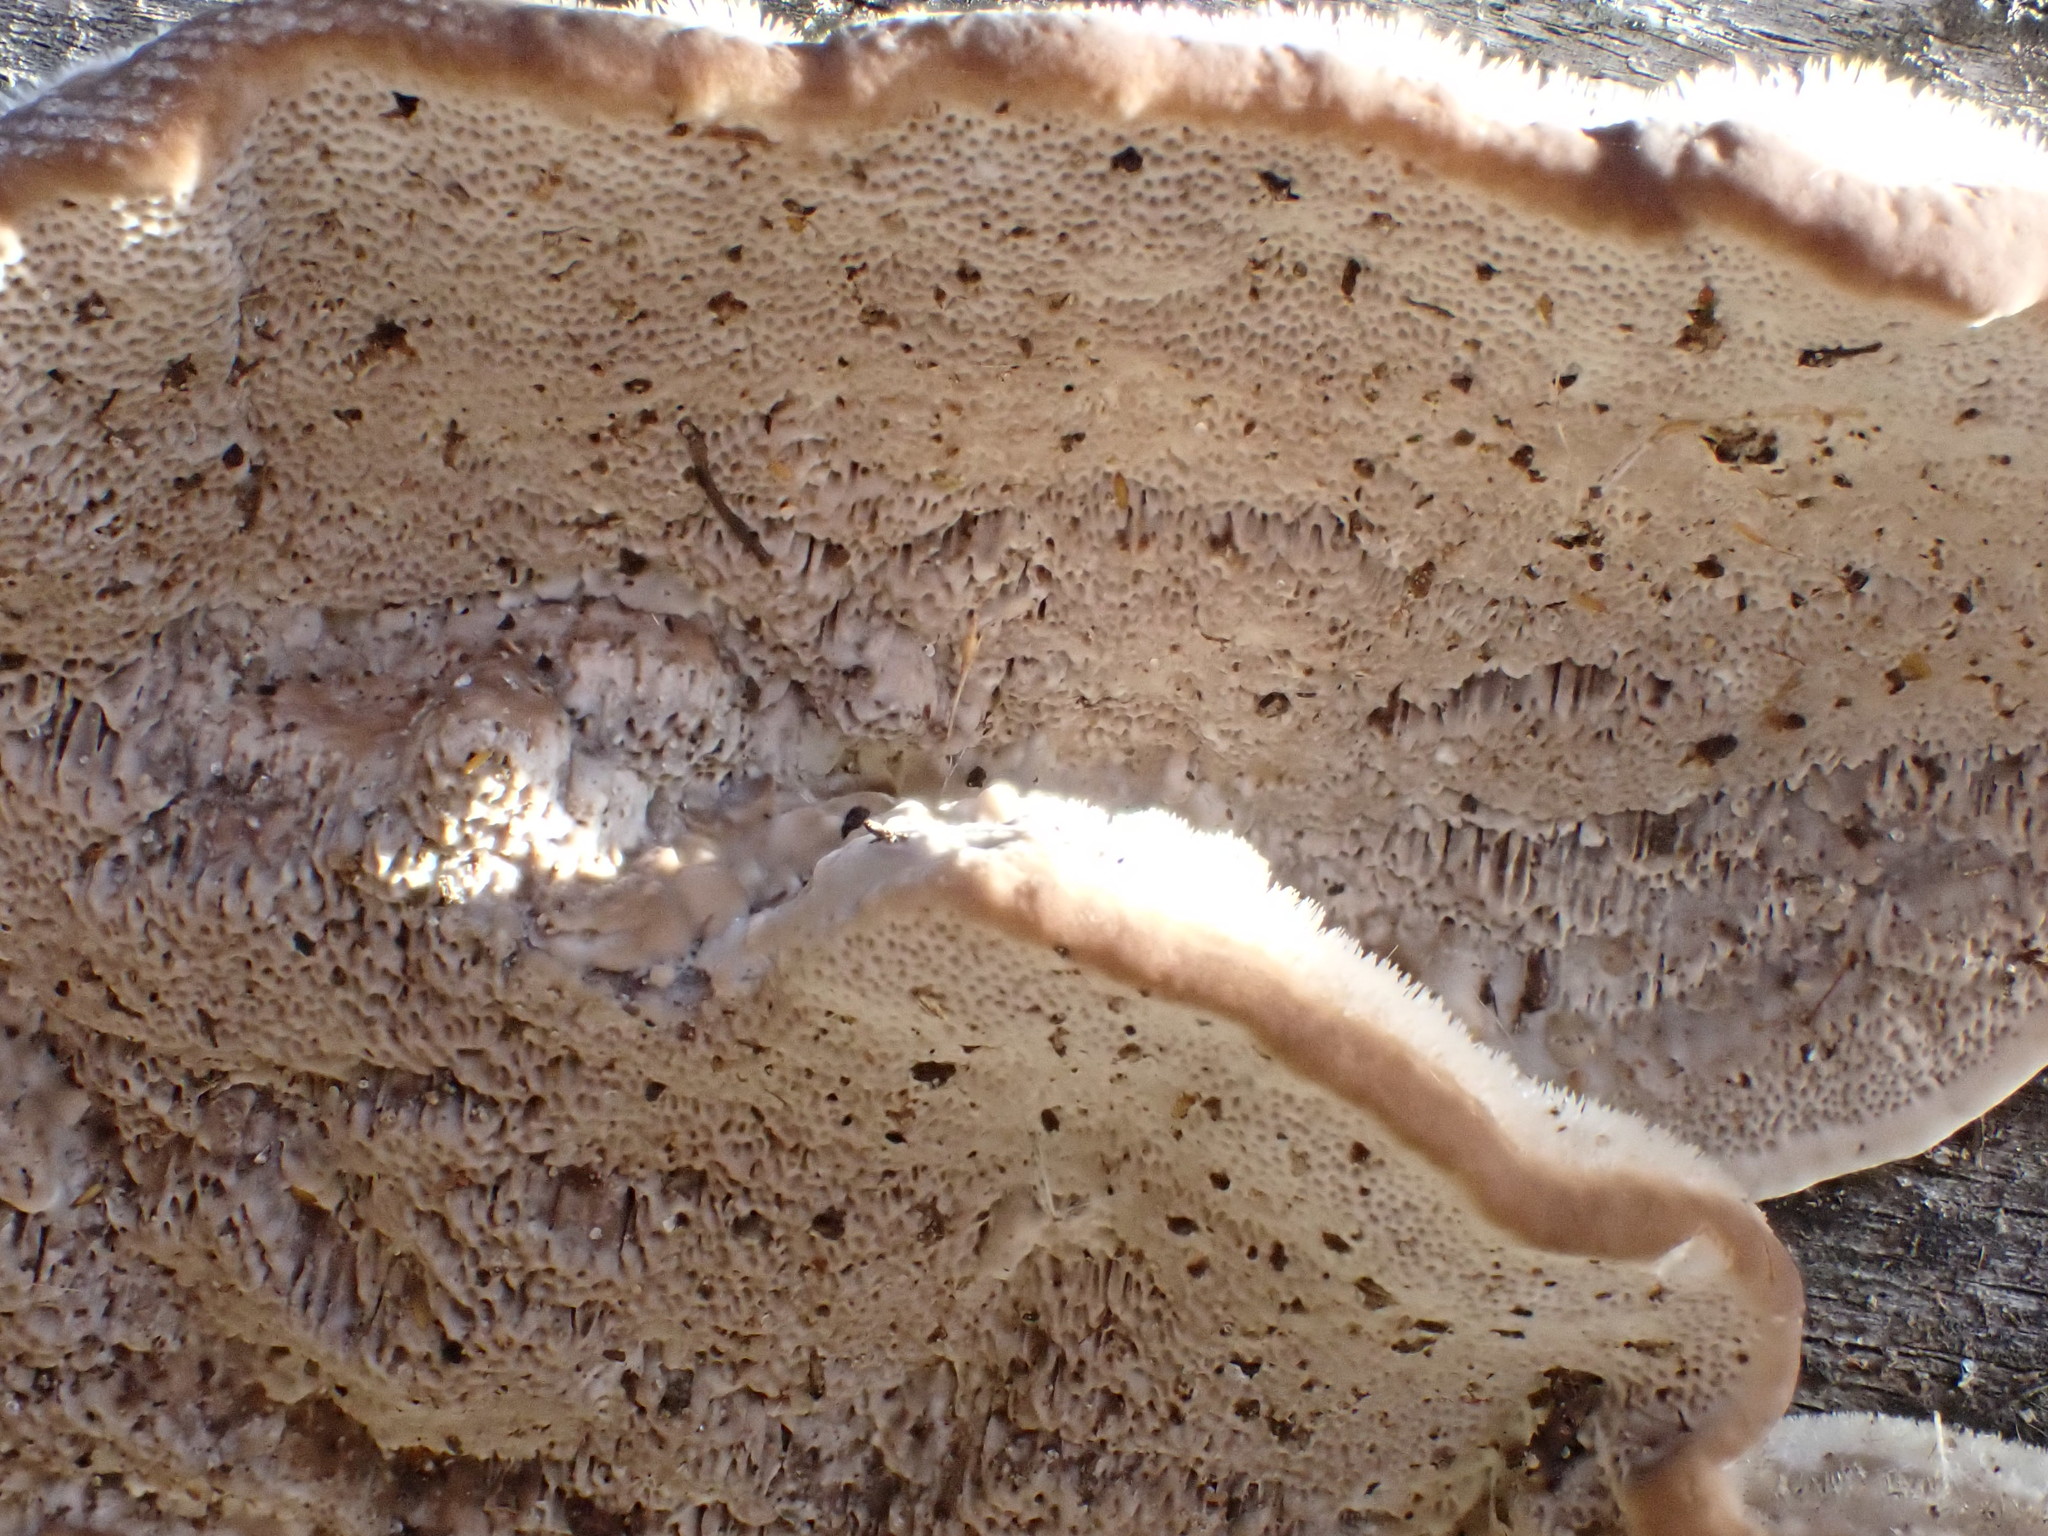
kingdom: Fungi
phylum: Basidiomycota
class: Agaricomycetes
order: Polyporales
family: Polyporaceae
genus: Trametes
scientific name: Trametes hirsuta
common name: Hairy bracket
